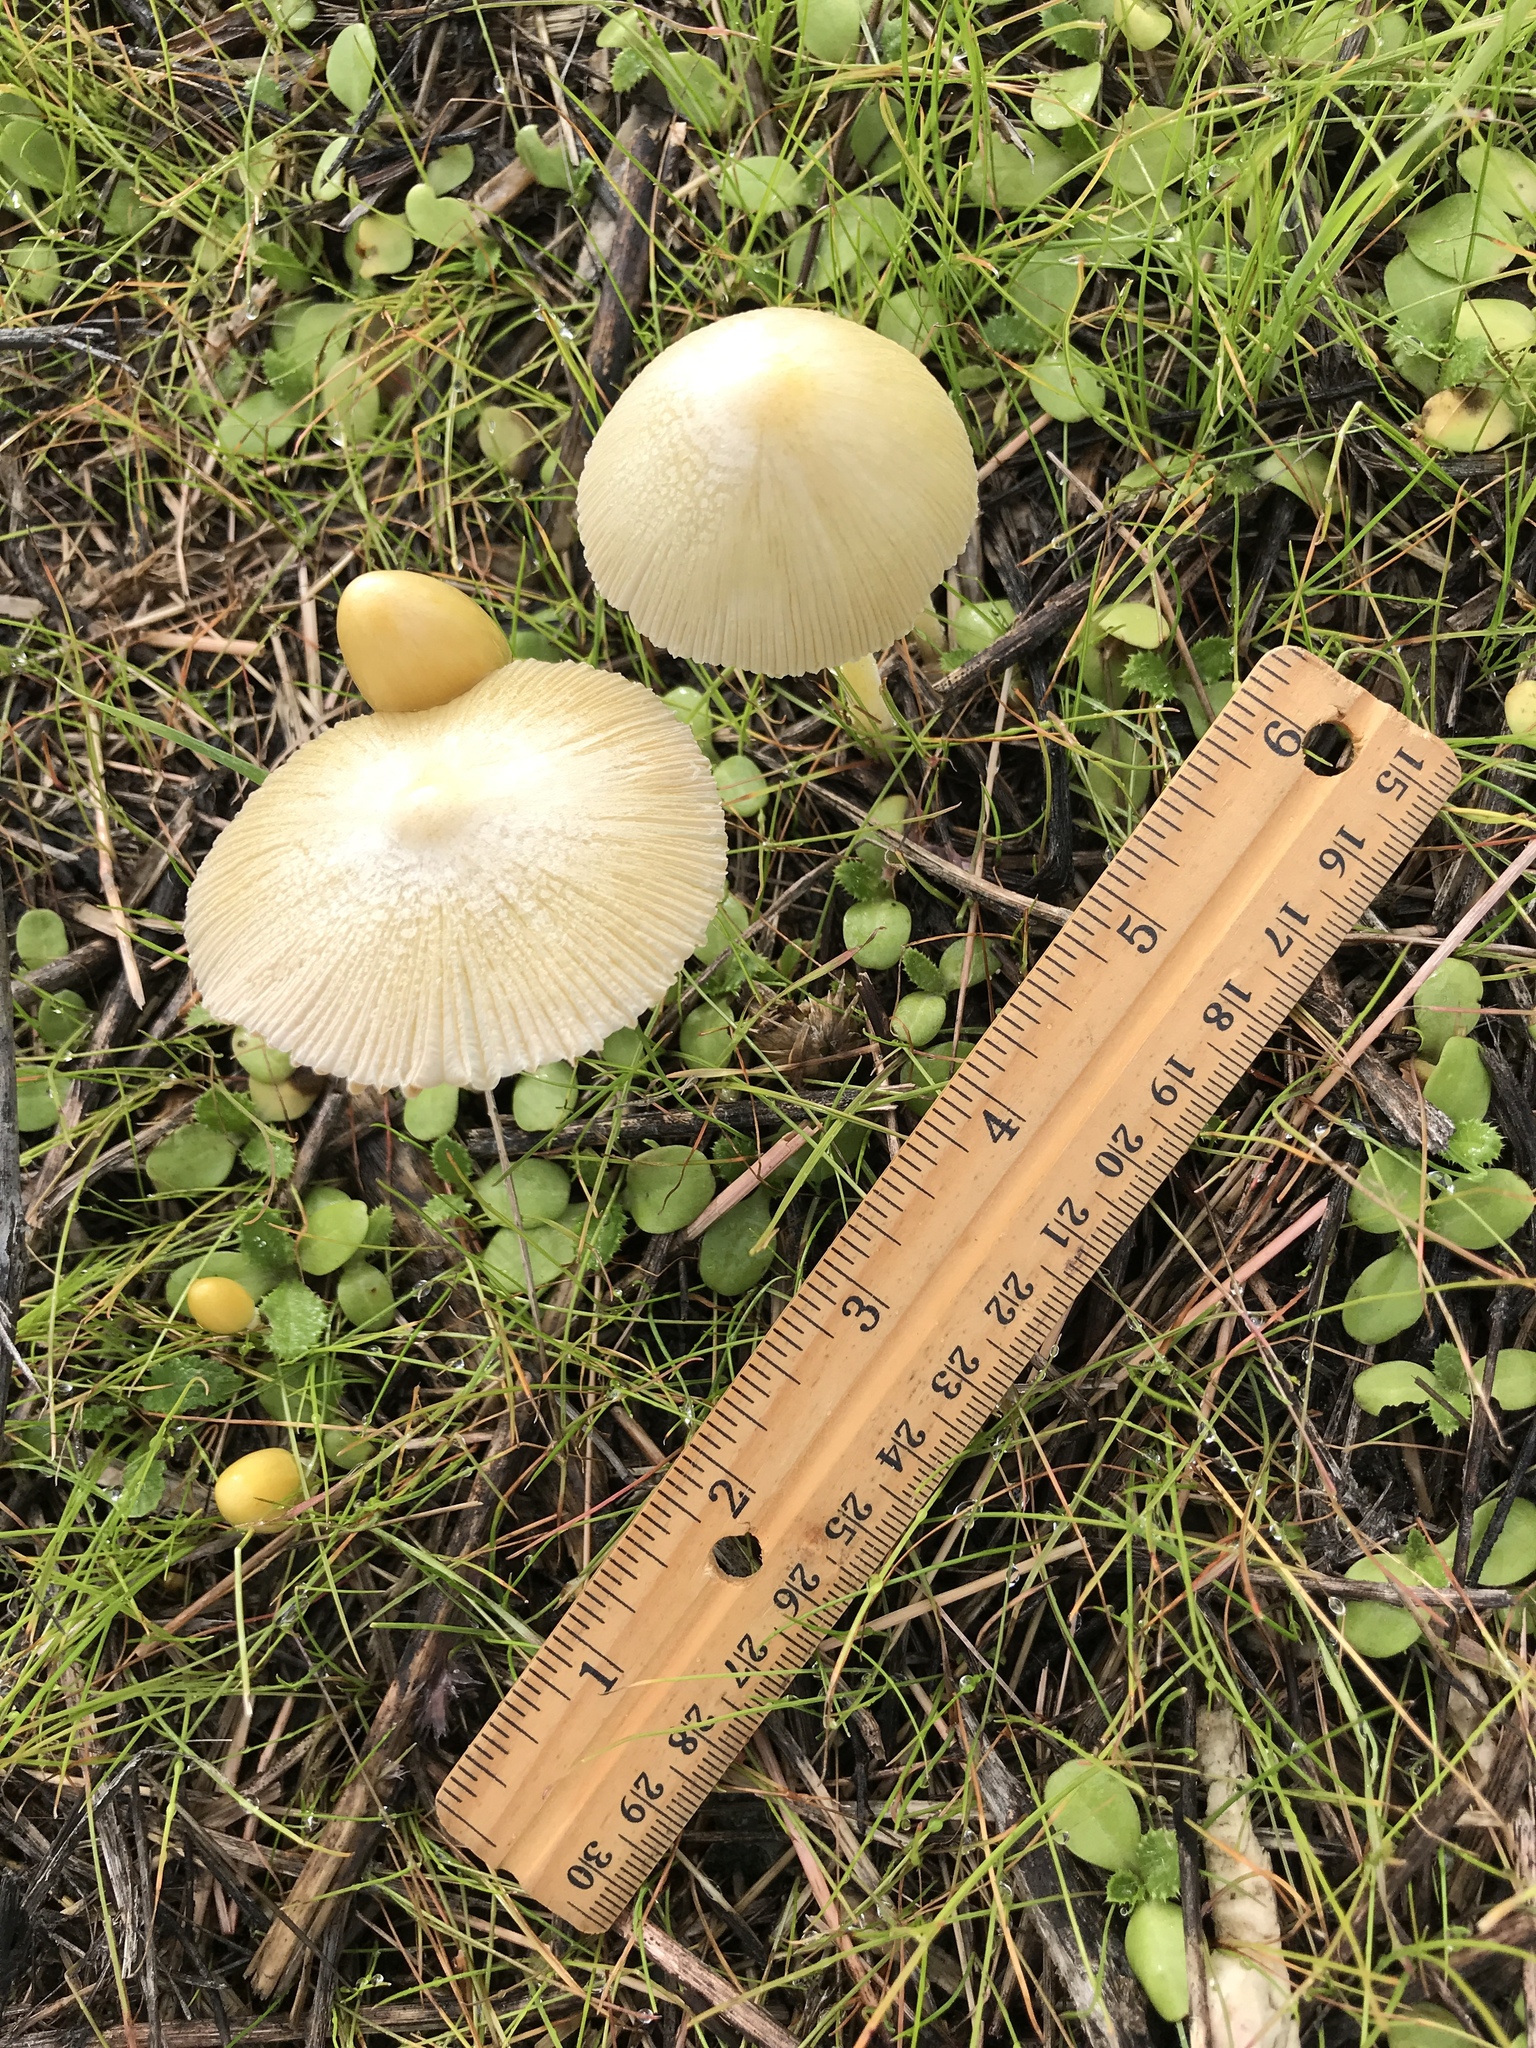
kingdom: Fungi
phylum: Basidiomycota
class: Agaricomycetes
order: Agaricales
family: Bolbitiaceae
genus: Bolbitius
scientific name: Bolbitius titubans
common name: Yellow fieldcap
